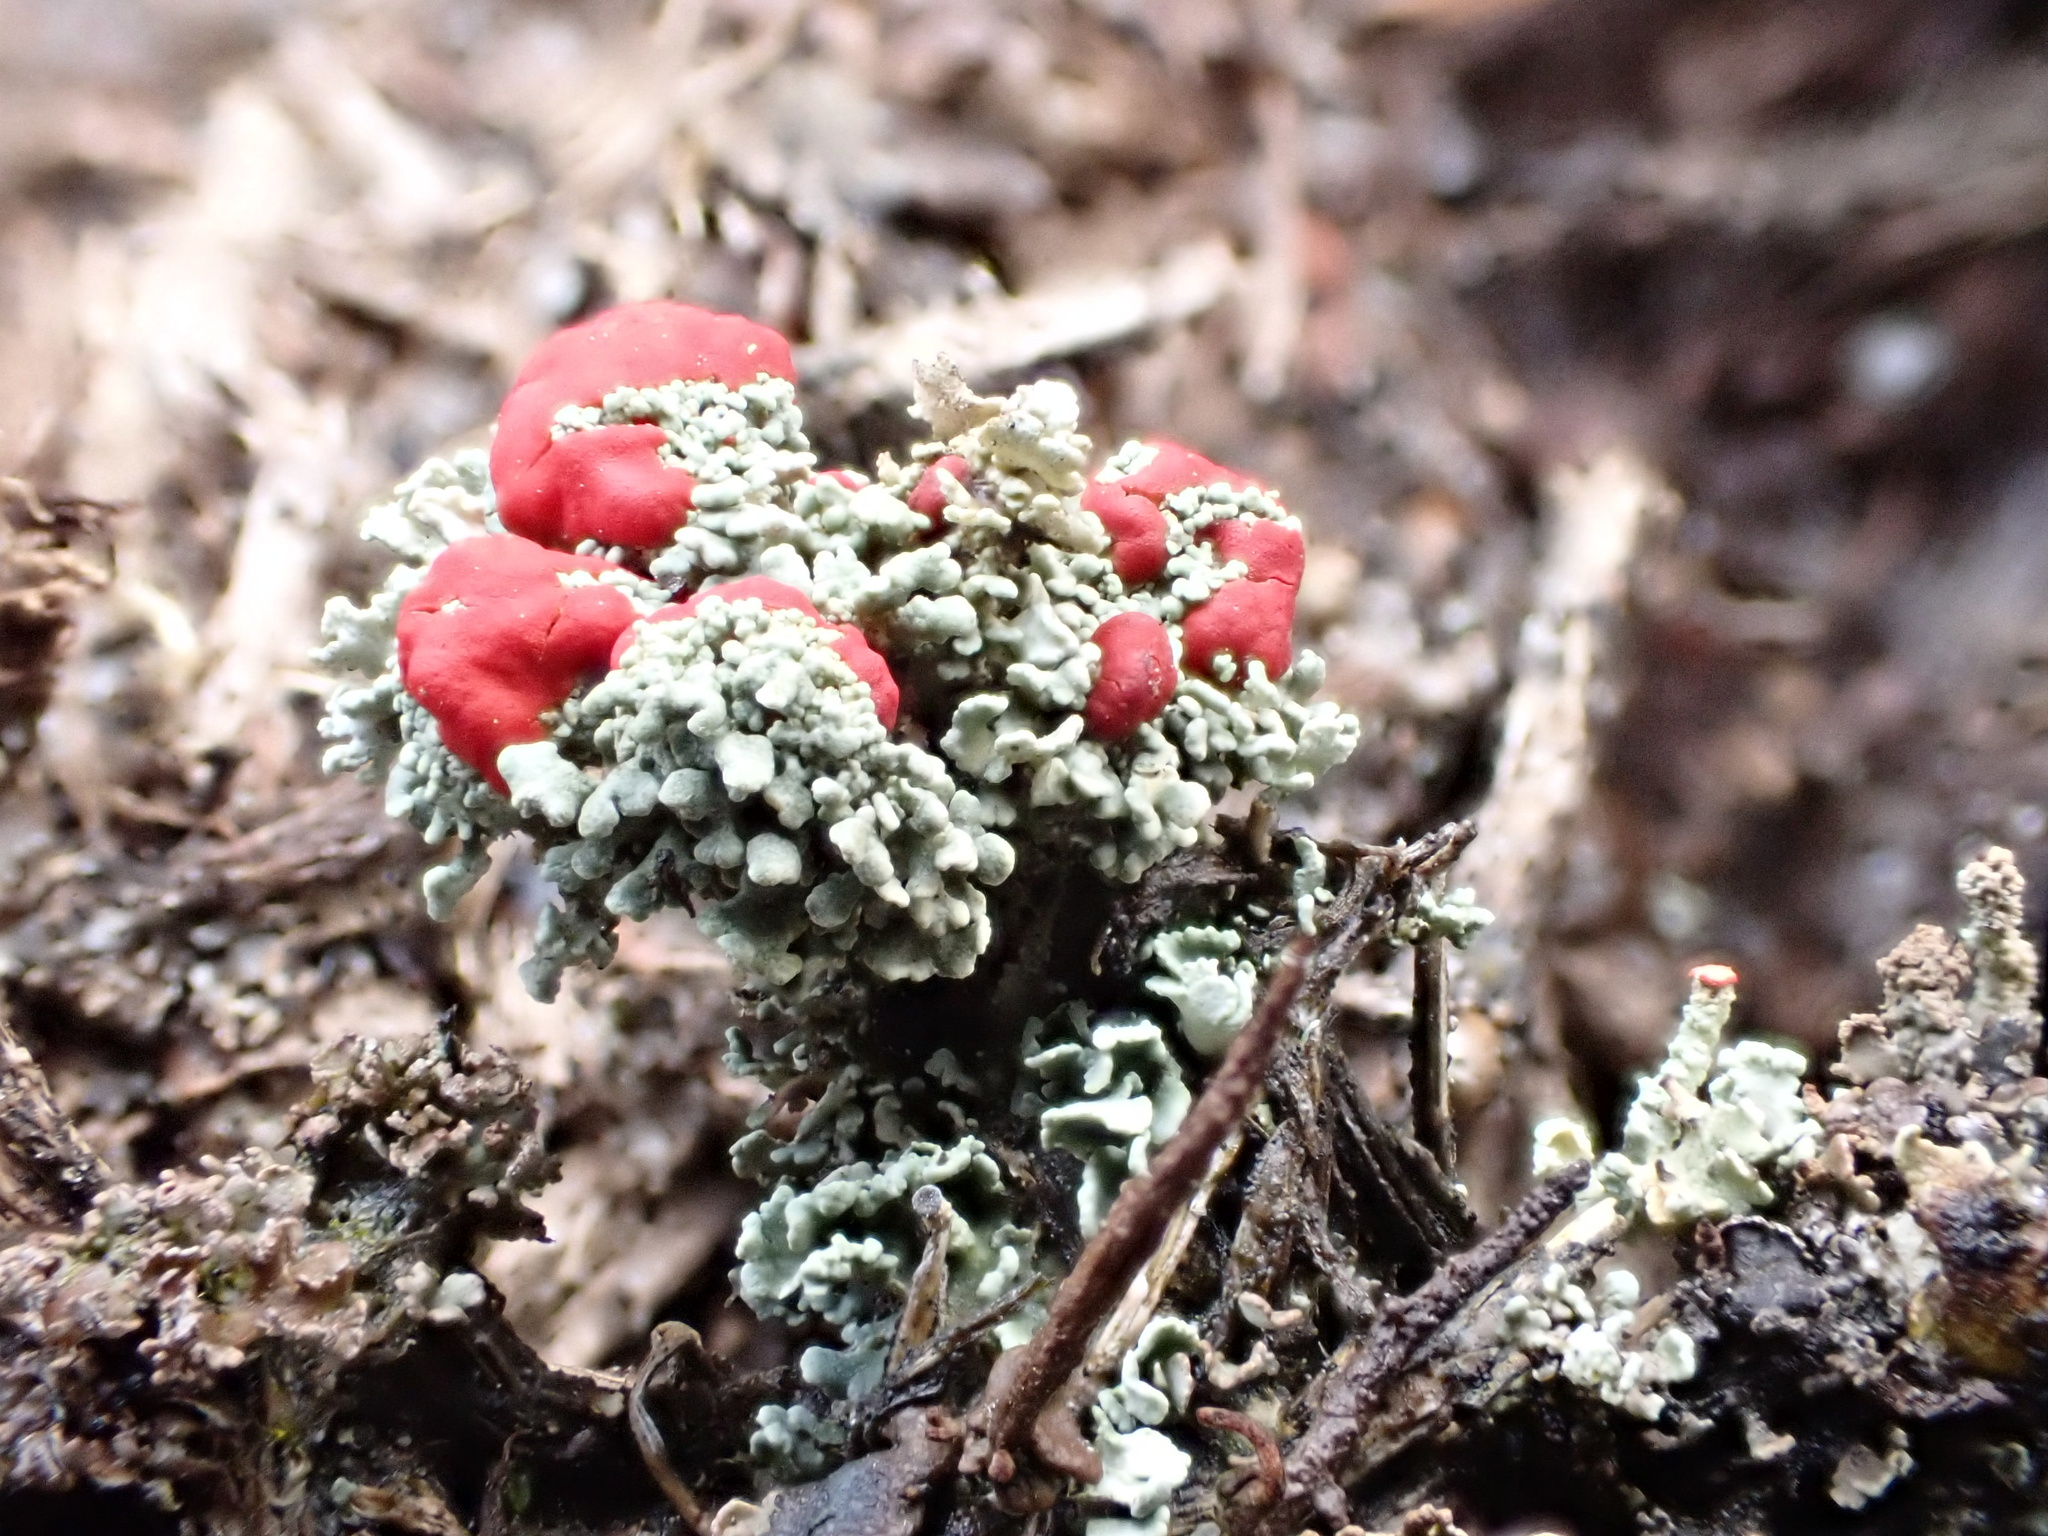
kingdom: Fungi
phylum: Ascomycota
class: Lecanoromycetes
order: Lecanorales
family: Cladoniaceae
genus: Cladonia
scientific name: Cladonia coccifera
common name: Scarlet-cup lichen
